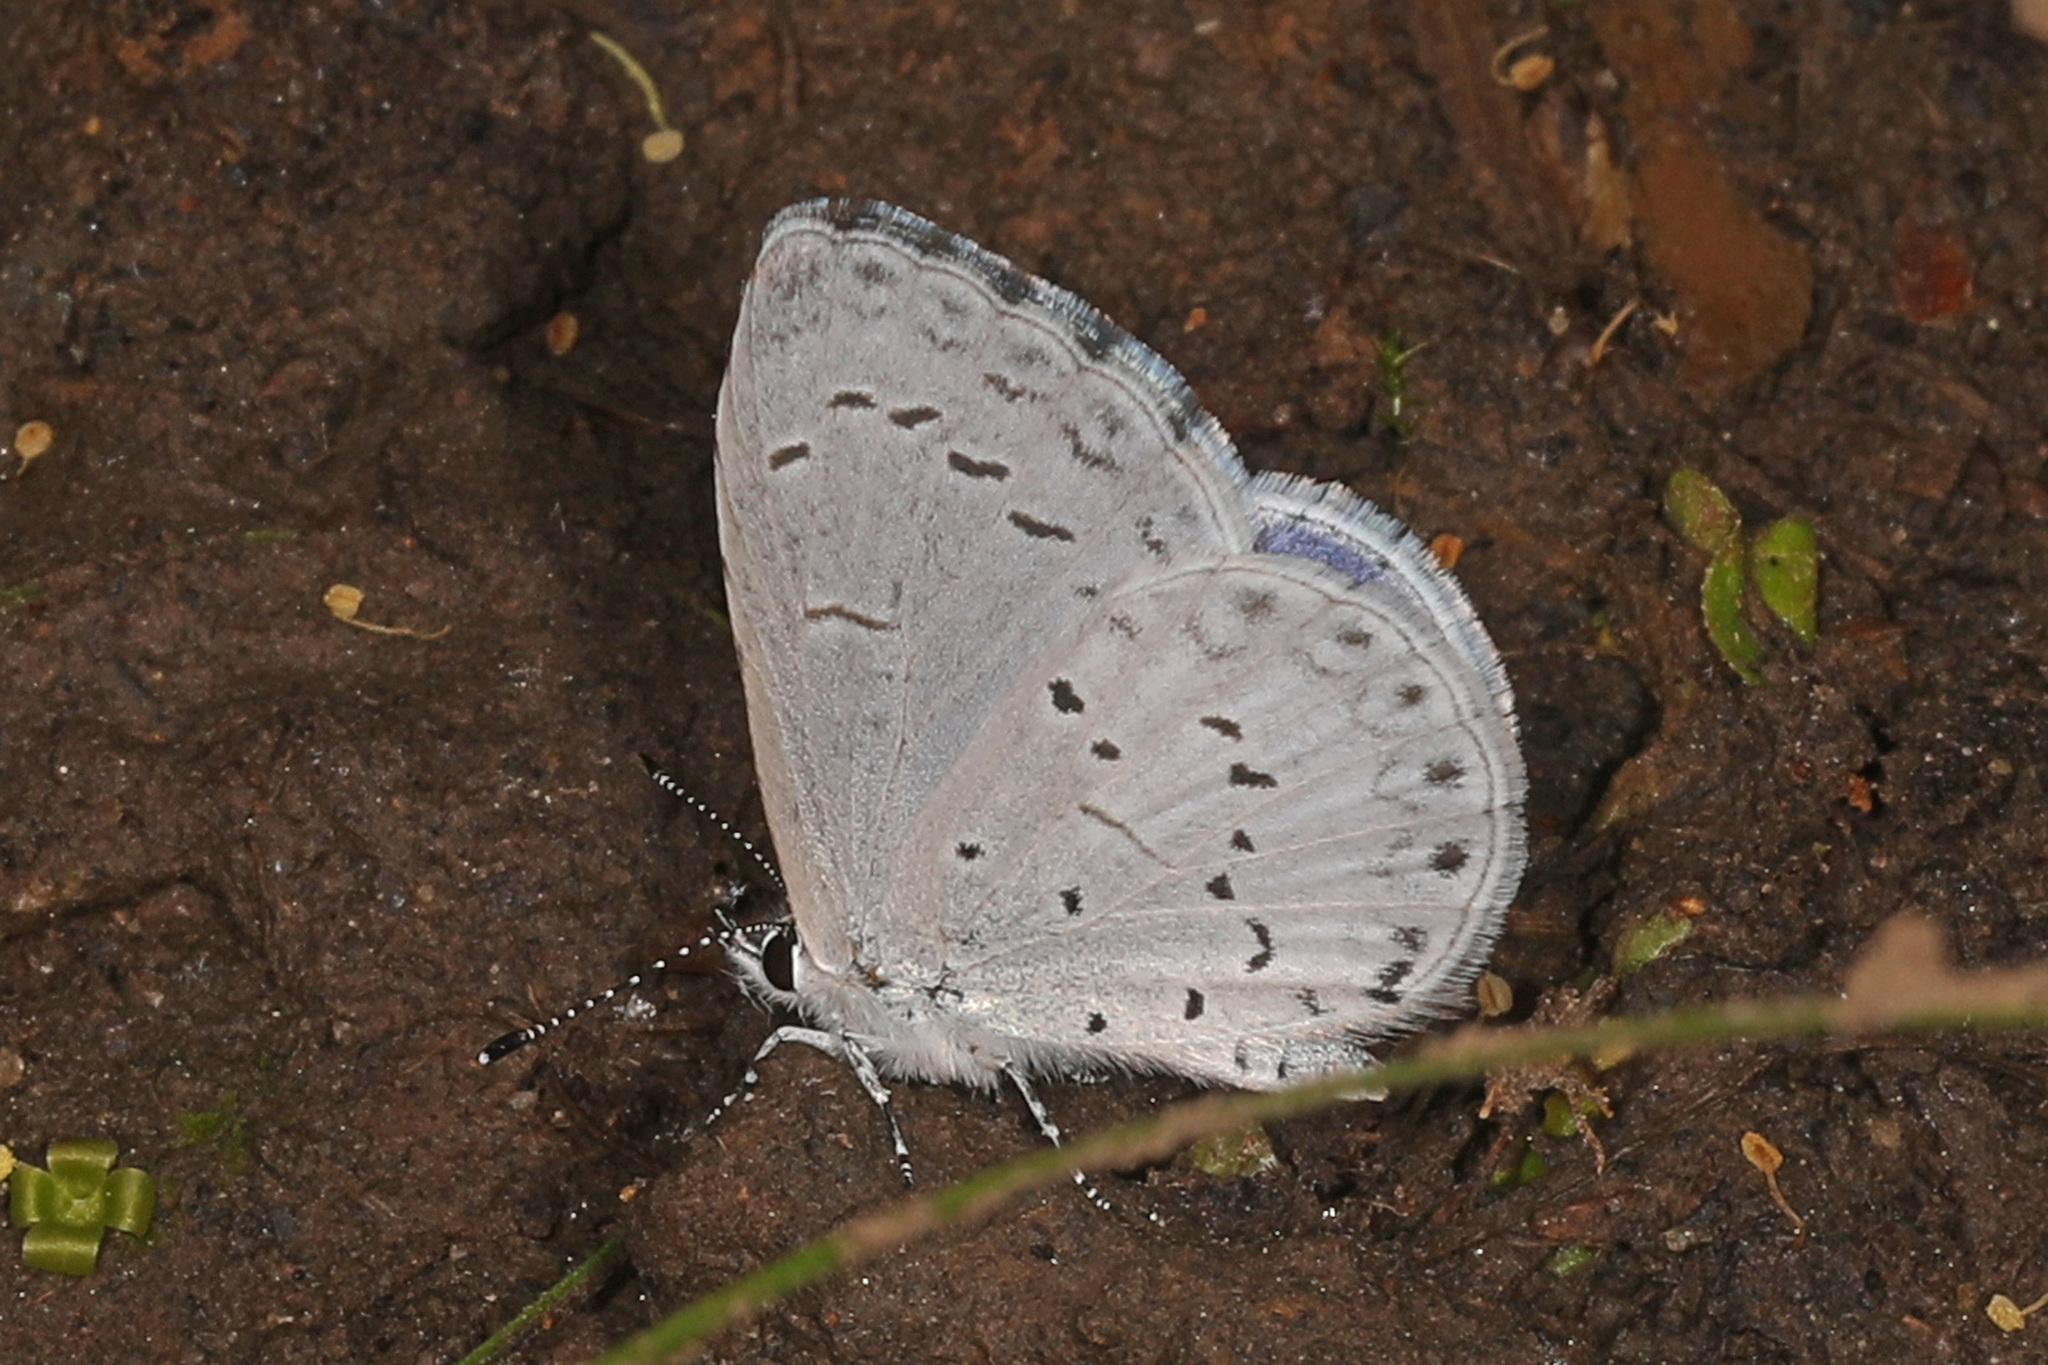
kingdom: Animalia
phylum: Arthropoda
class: Insecta
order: Lepidoptera
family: Lycaenidae
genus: Cyaniris
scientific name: Cyaniris neglecta
